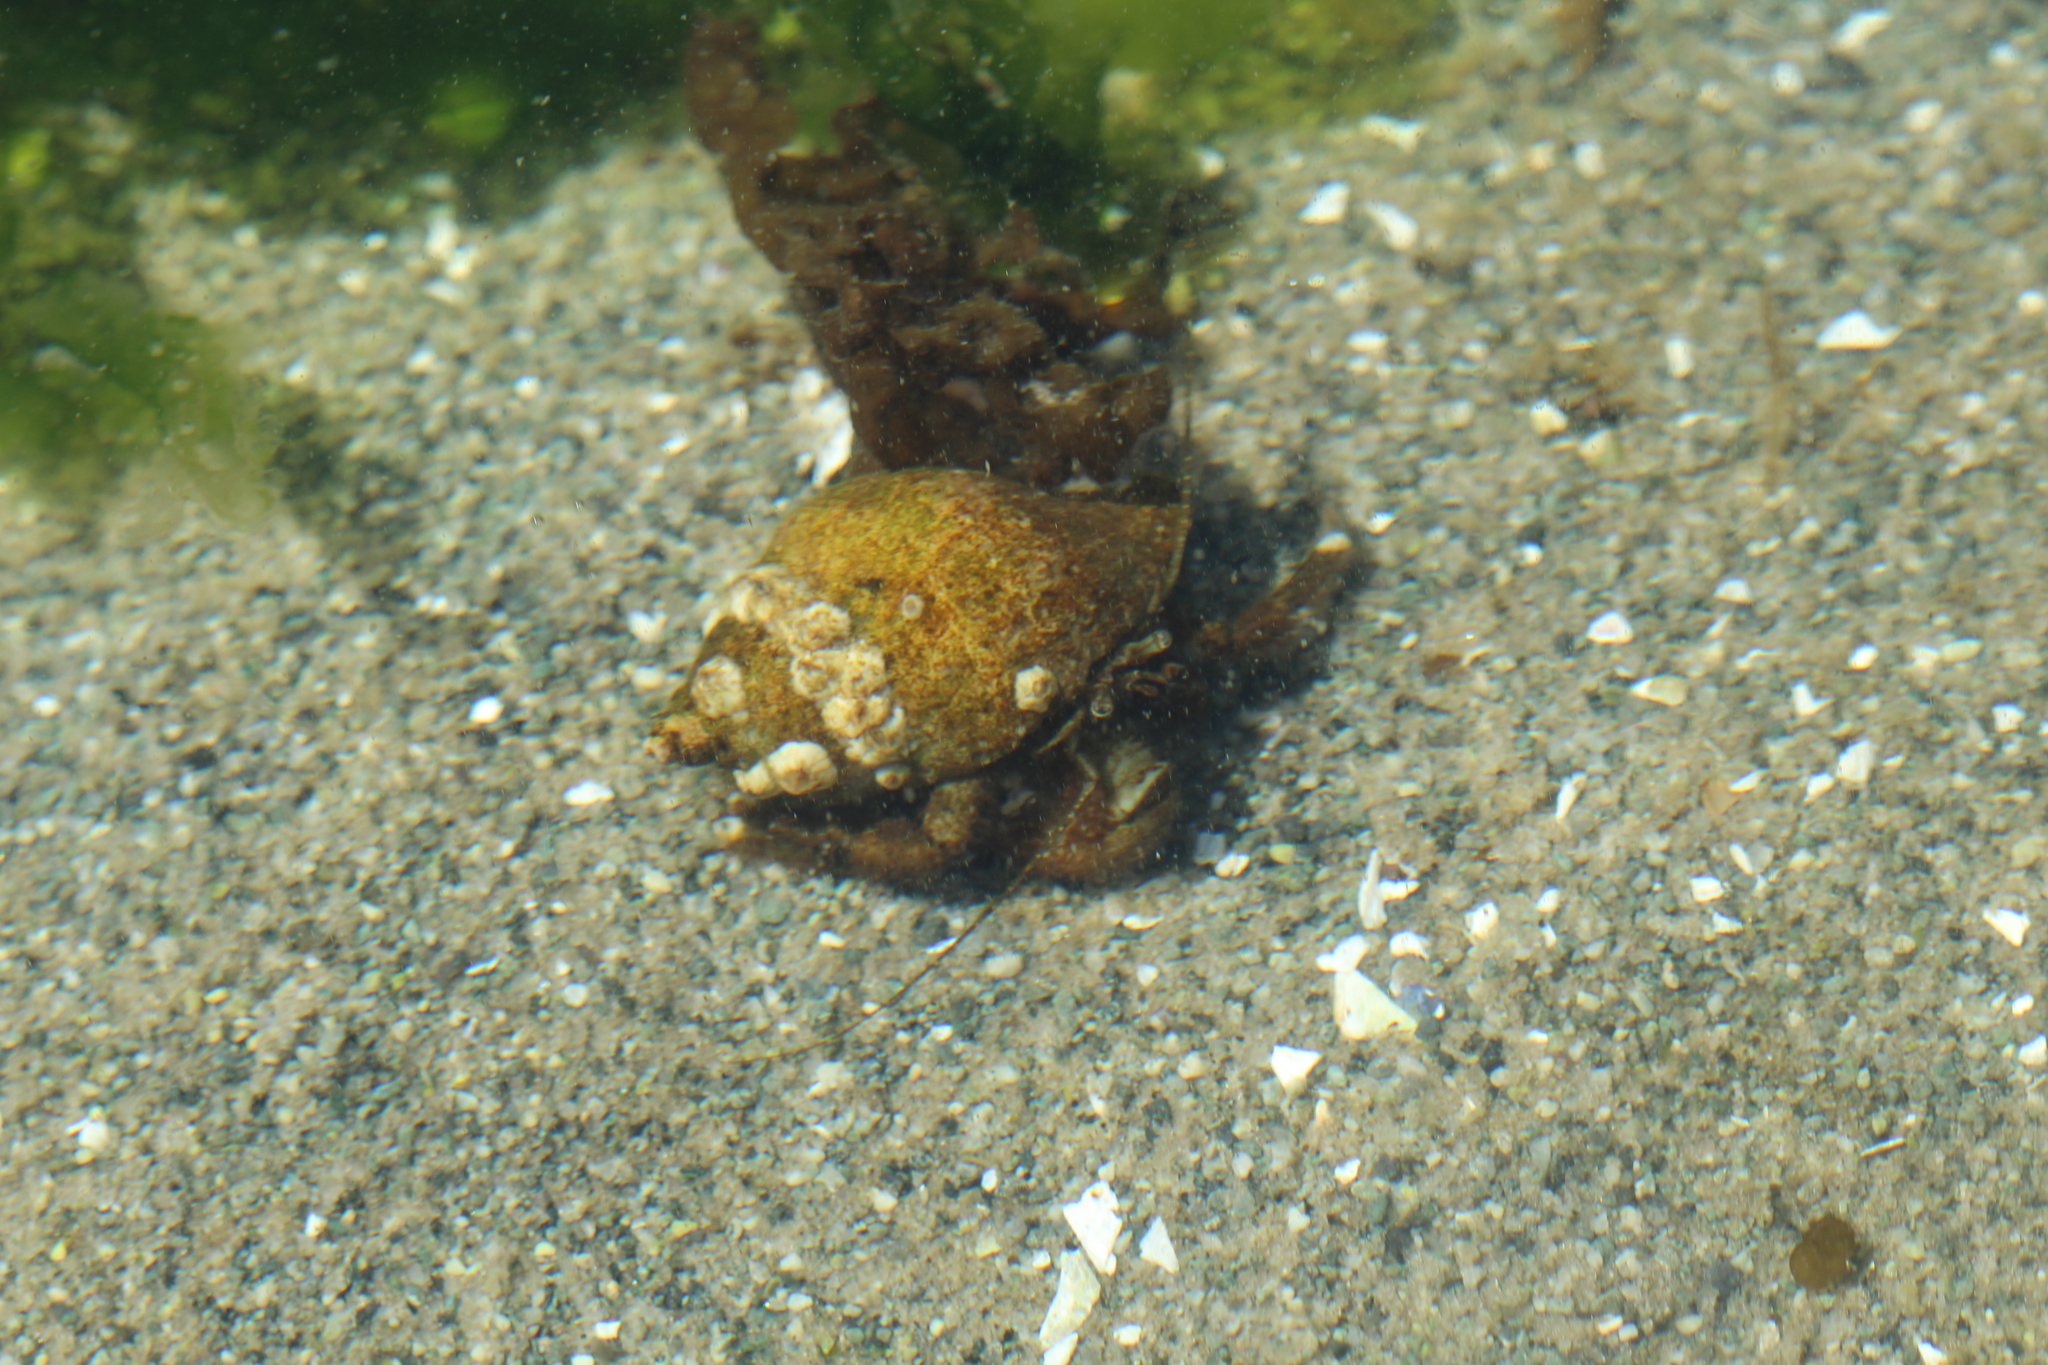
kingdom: Animalia
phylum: Arthropoda
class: Malacostraca
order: Decapoda
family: Paguridae
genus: Pagurus
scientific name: Pagurus hirsutiusculus
